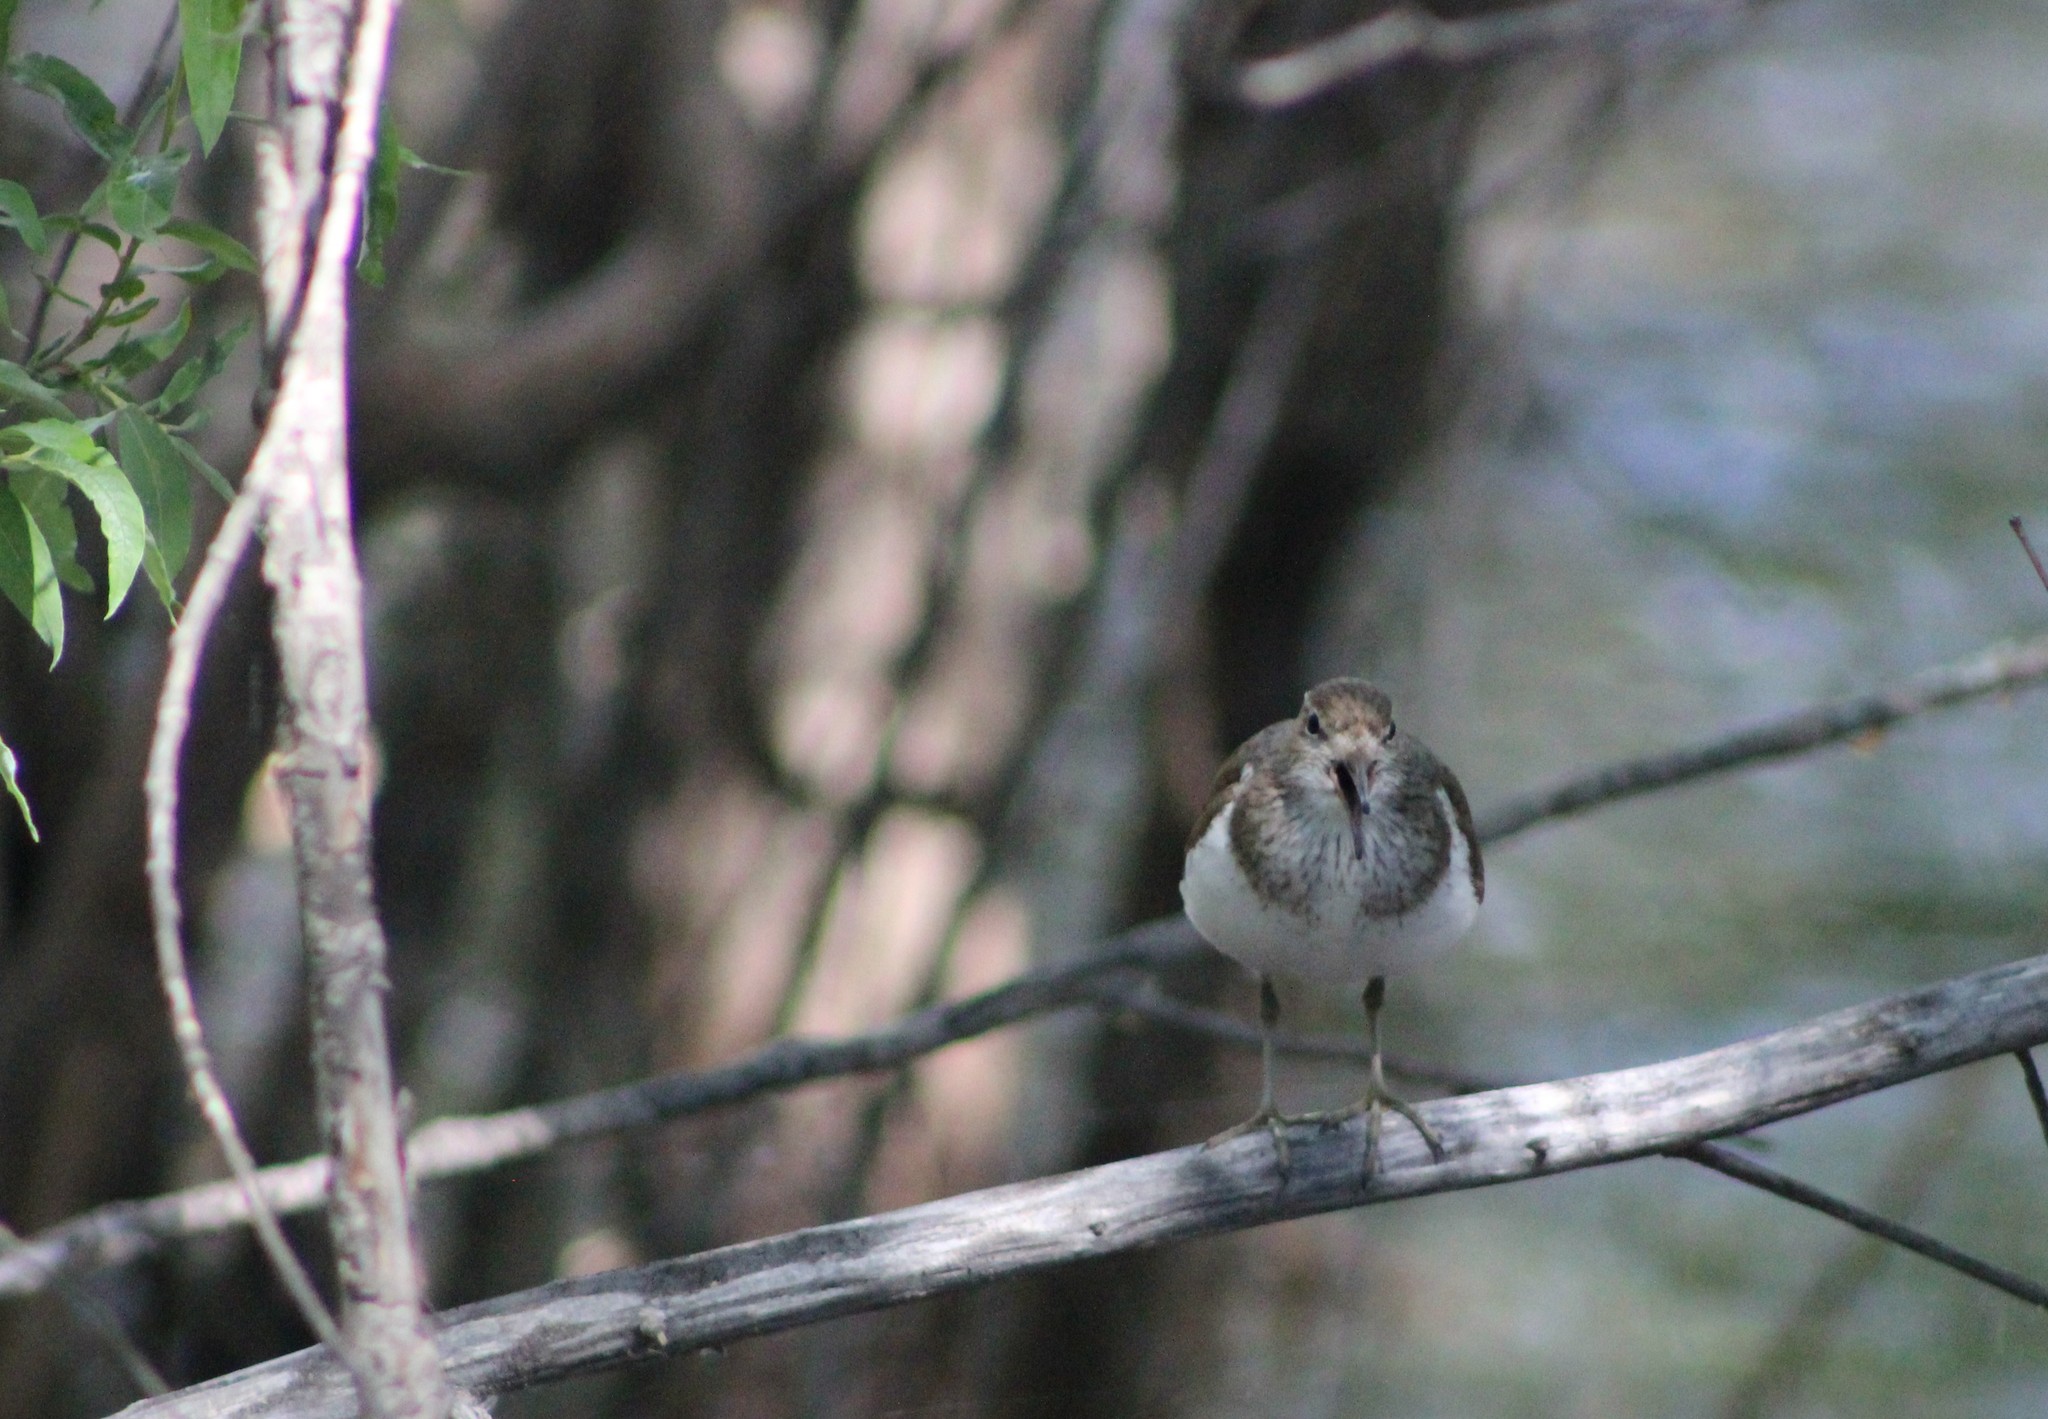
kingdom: Animalia
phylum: Chordata
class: Aves
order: Charadriiformes
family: Scolopacidae
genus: Actitis
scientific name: Actitis hypoleucos
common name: Common sandpiper
